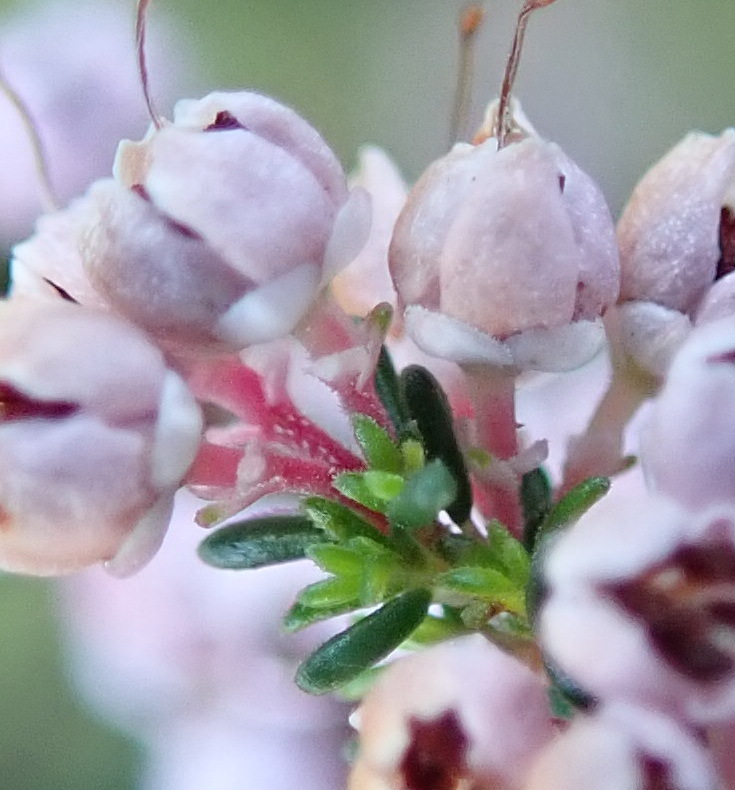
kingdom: Plantae
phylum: Tracheophyta
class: Magnoliopsida
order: Ericales
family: Ericaceae
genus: Erica
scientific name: Erica sparsa
